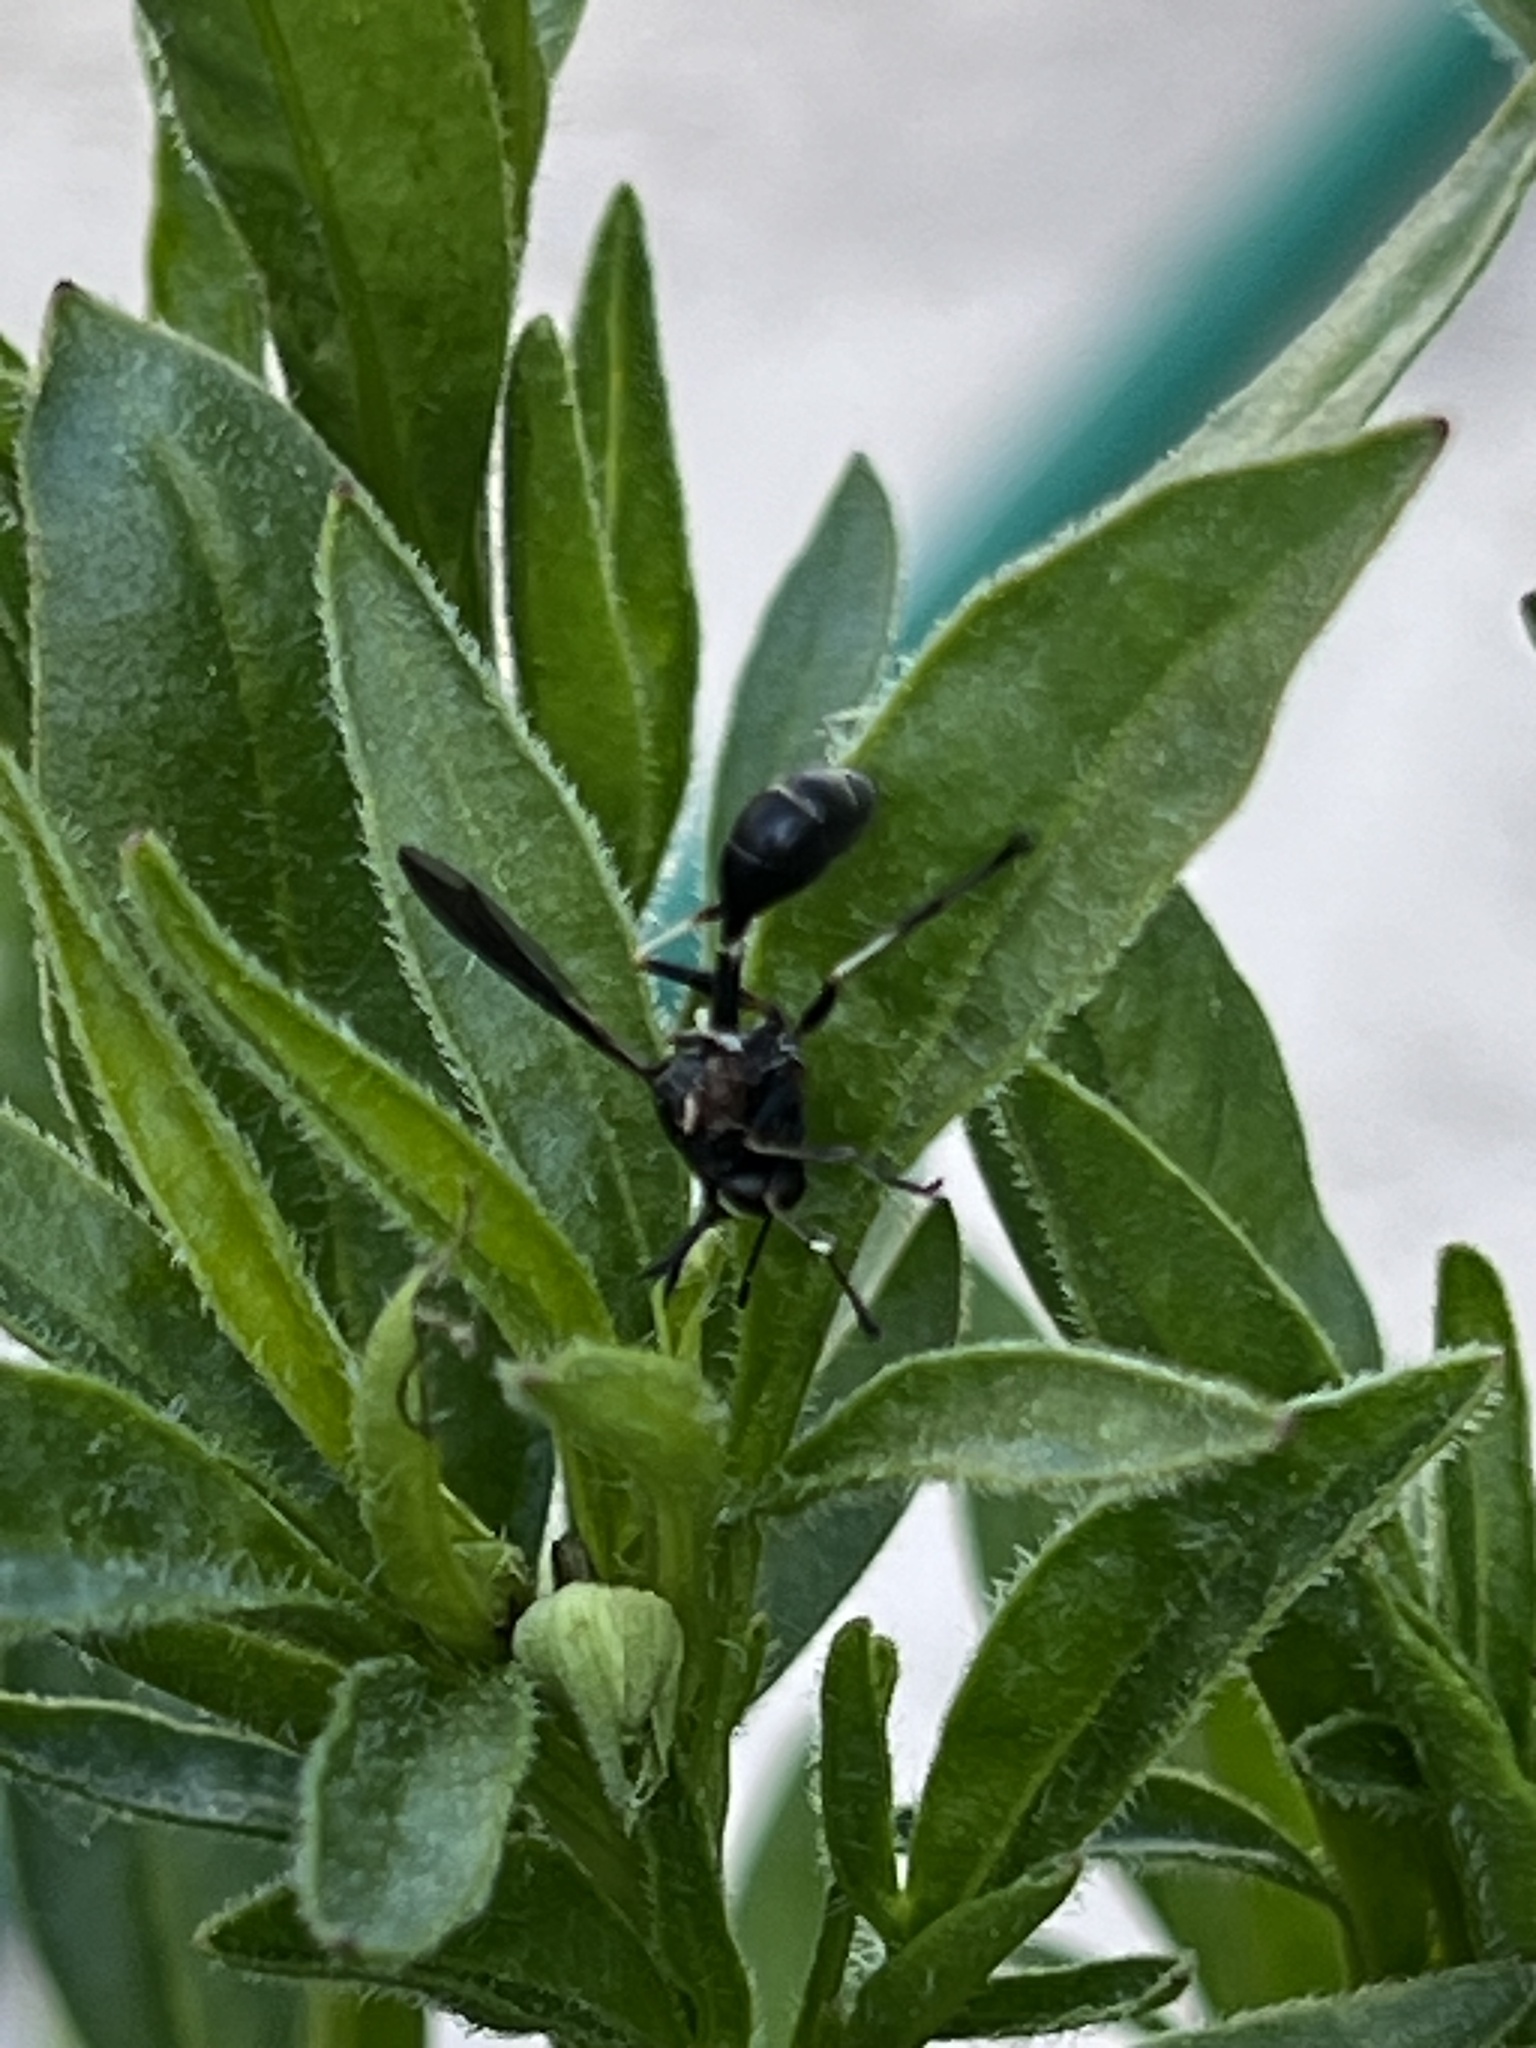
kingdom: Animalia
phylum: Arthropoda
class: Insecta
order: Diptera
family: Conopidae
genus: Physocephala
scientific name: Physocephala tibialis
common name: Common eastern physocephala
